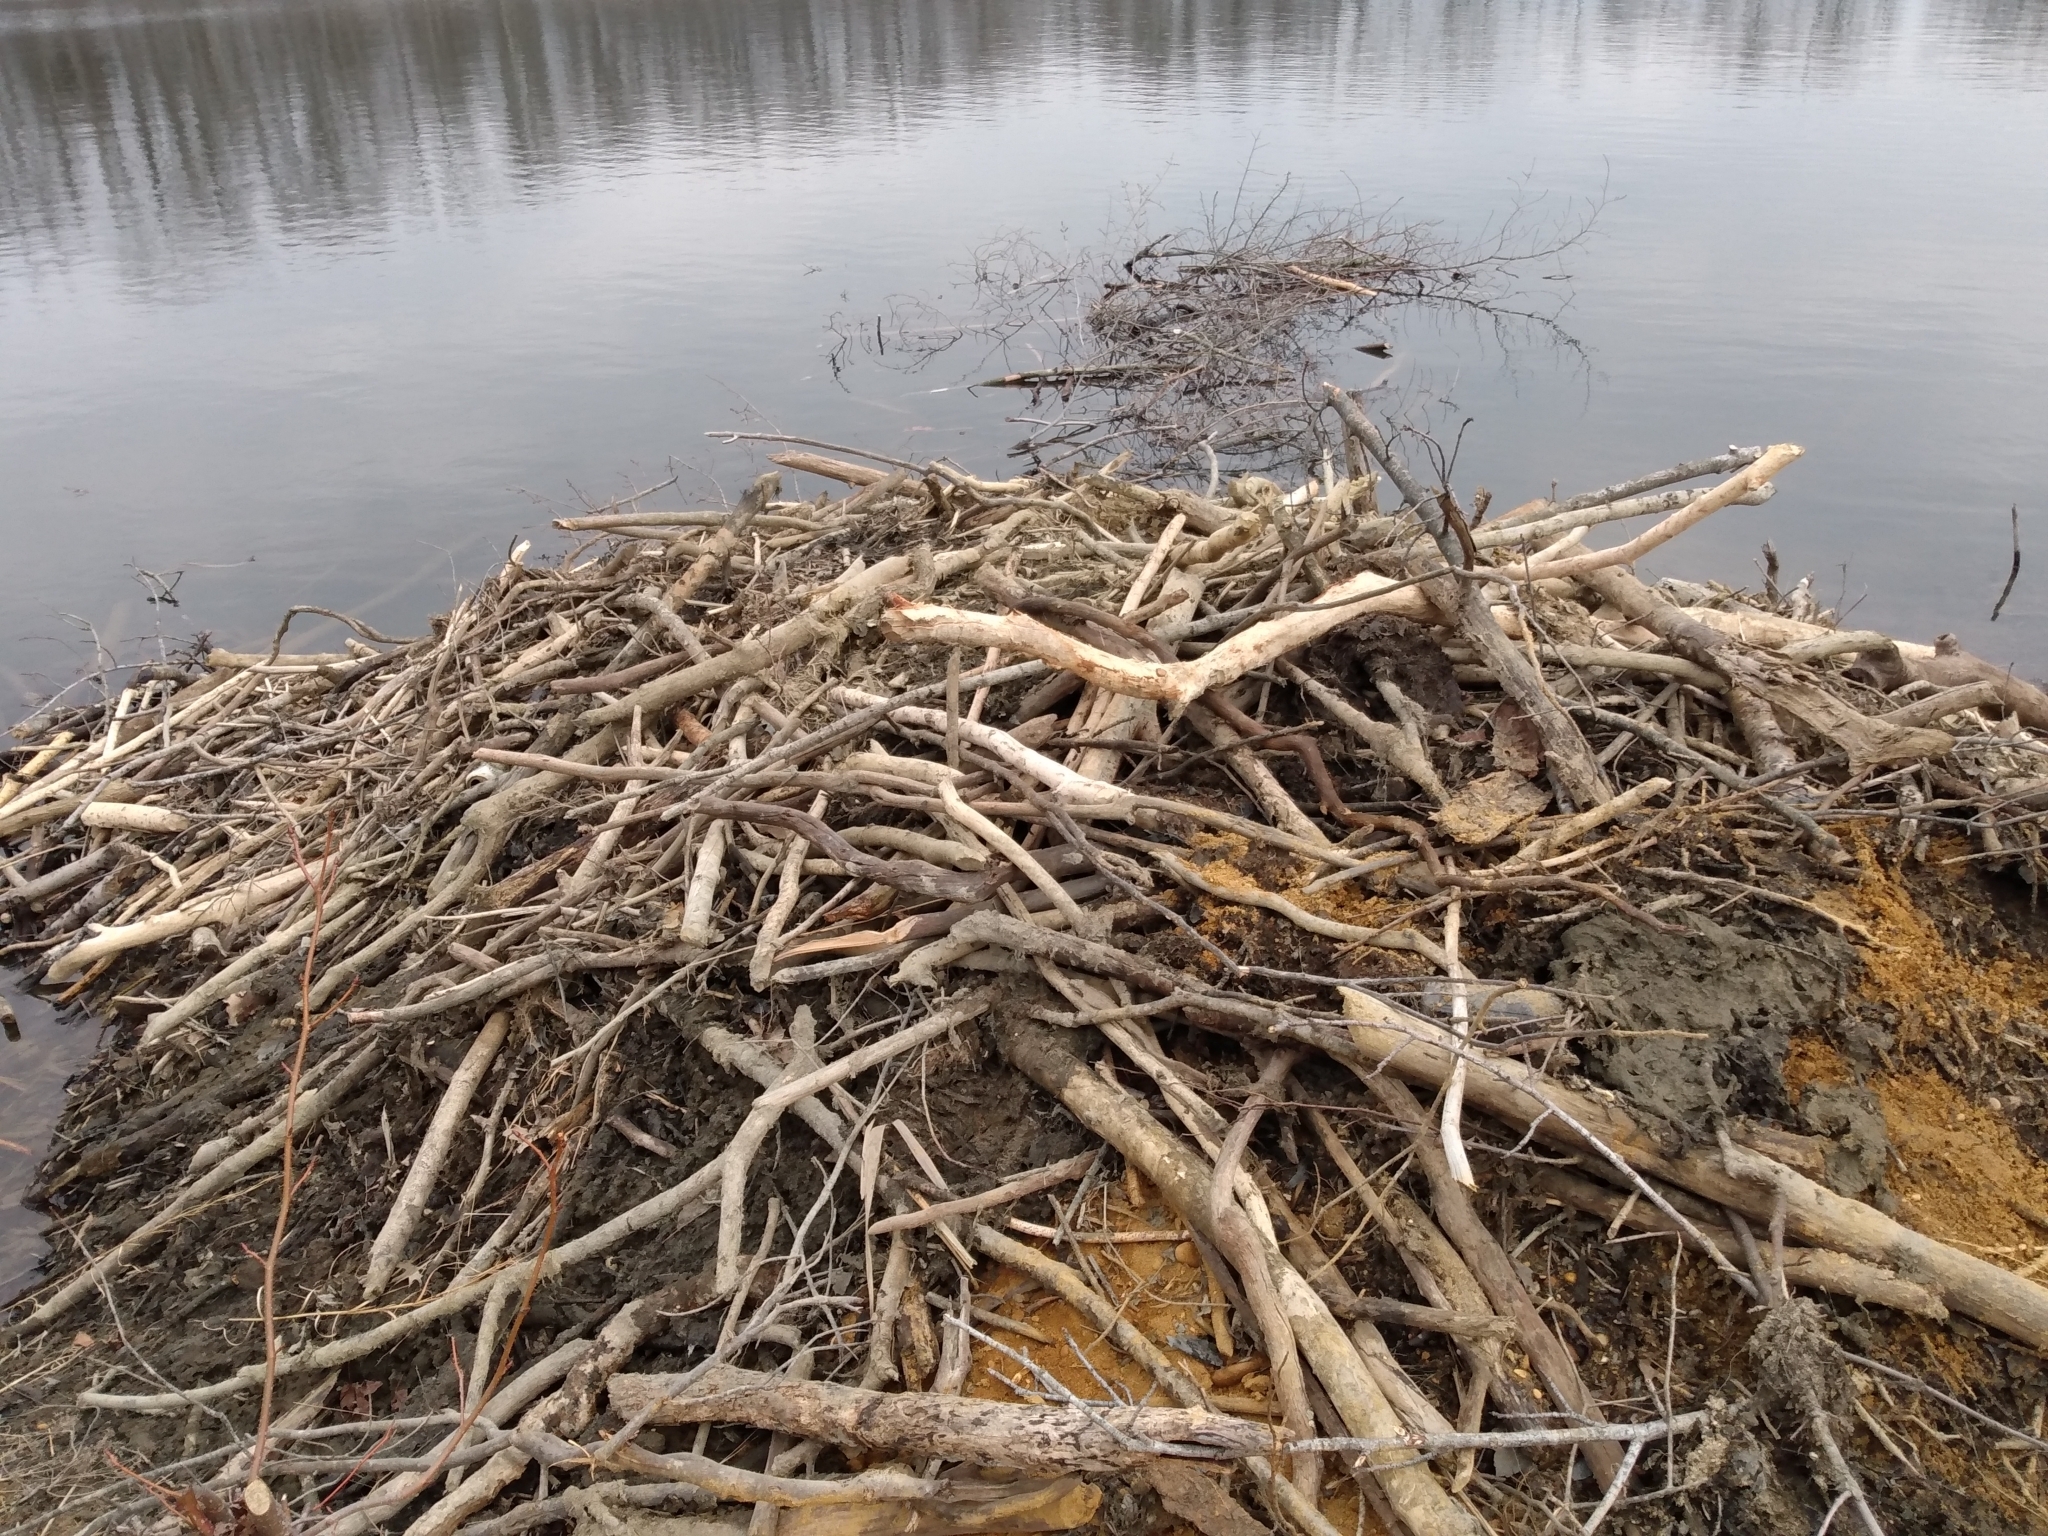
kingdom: Animalia
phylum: Chordata
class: Mammalia
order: Rodentia
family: Castoridae
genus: Castor
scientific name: Castor canadensis
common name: American beaver
